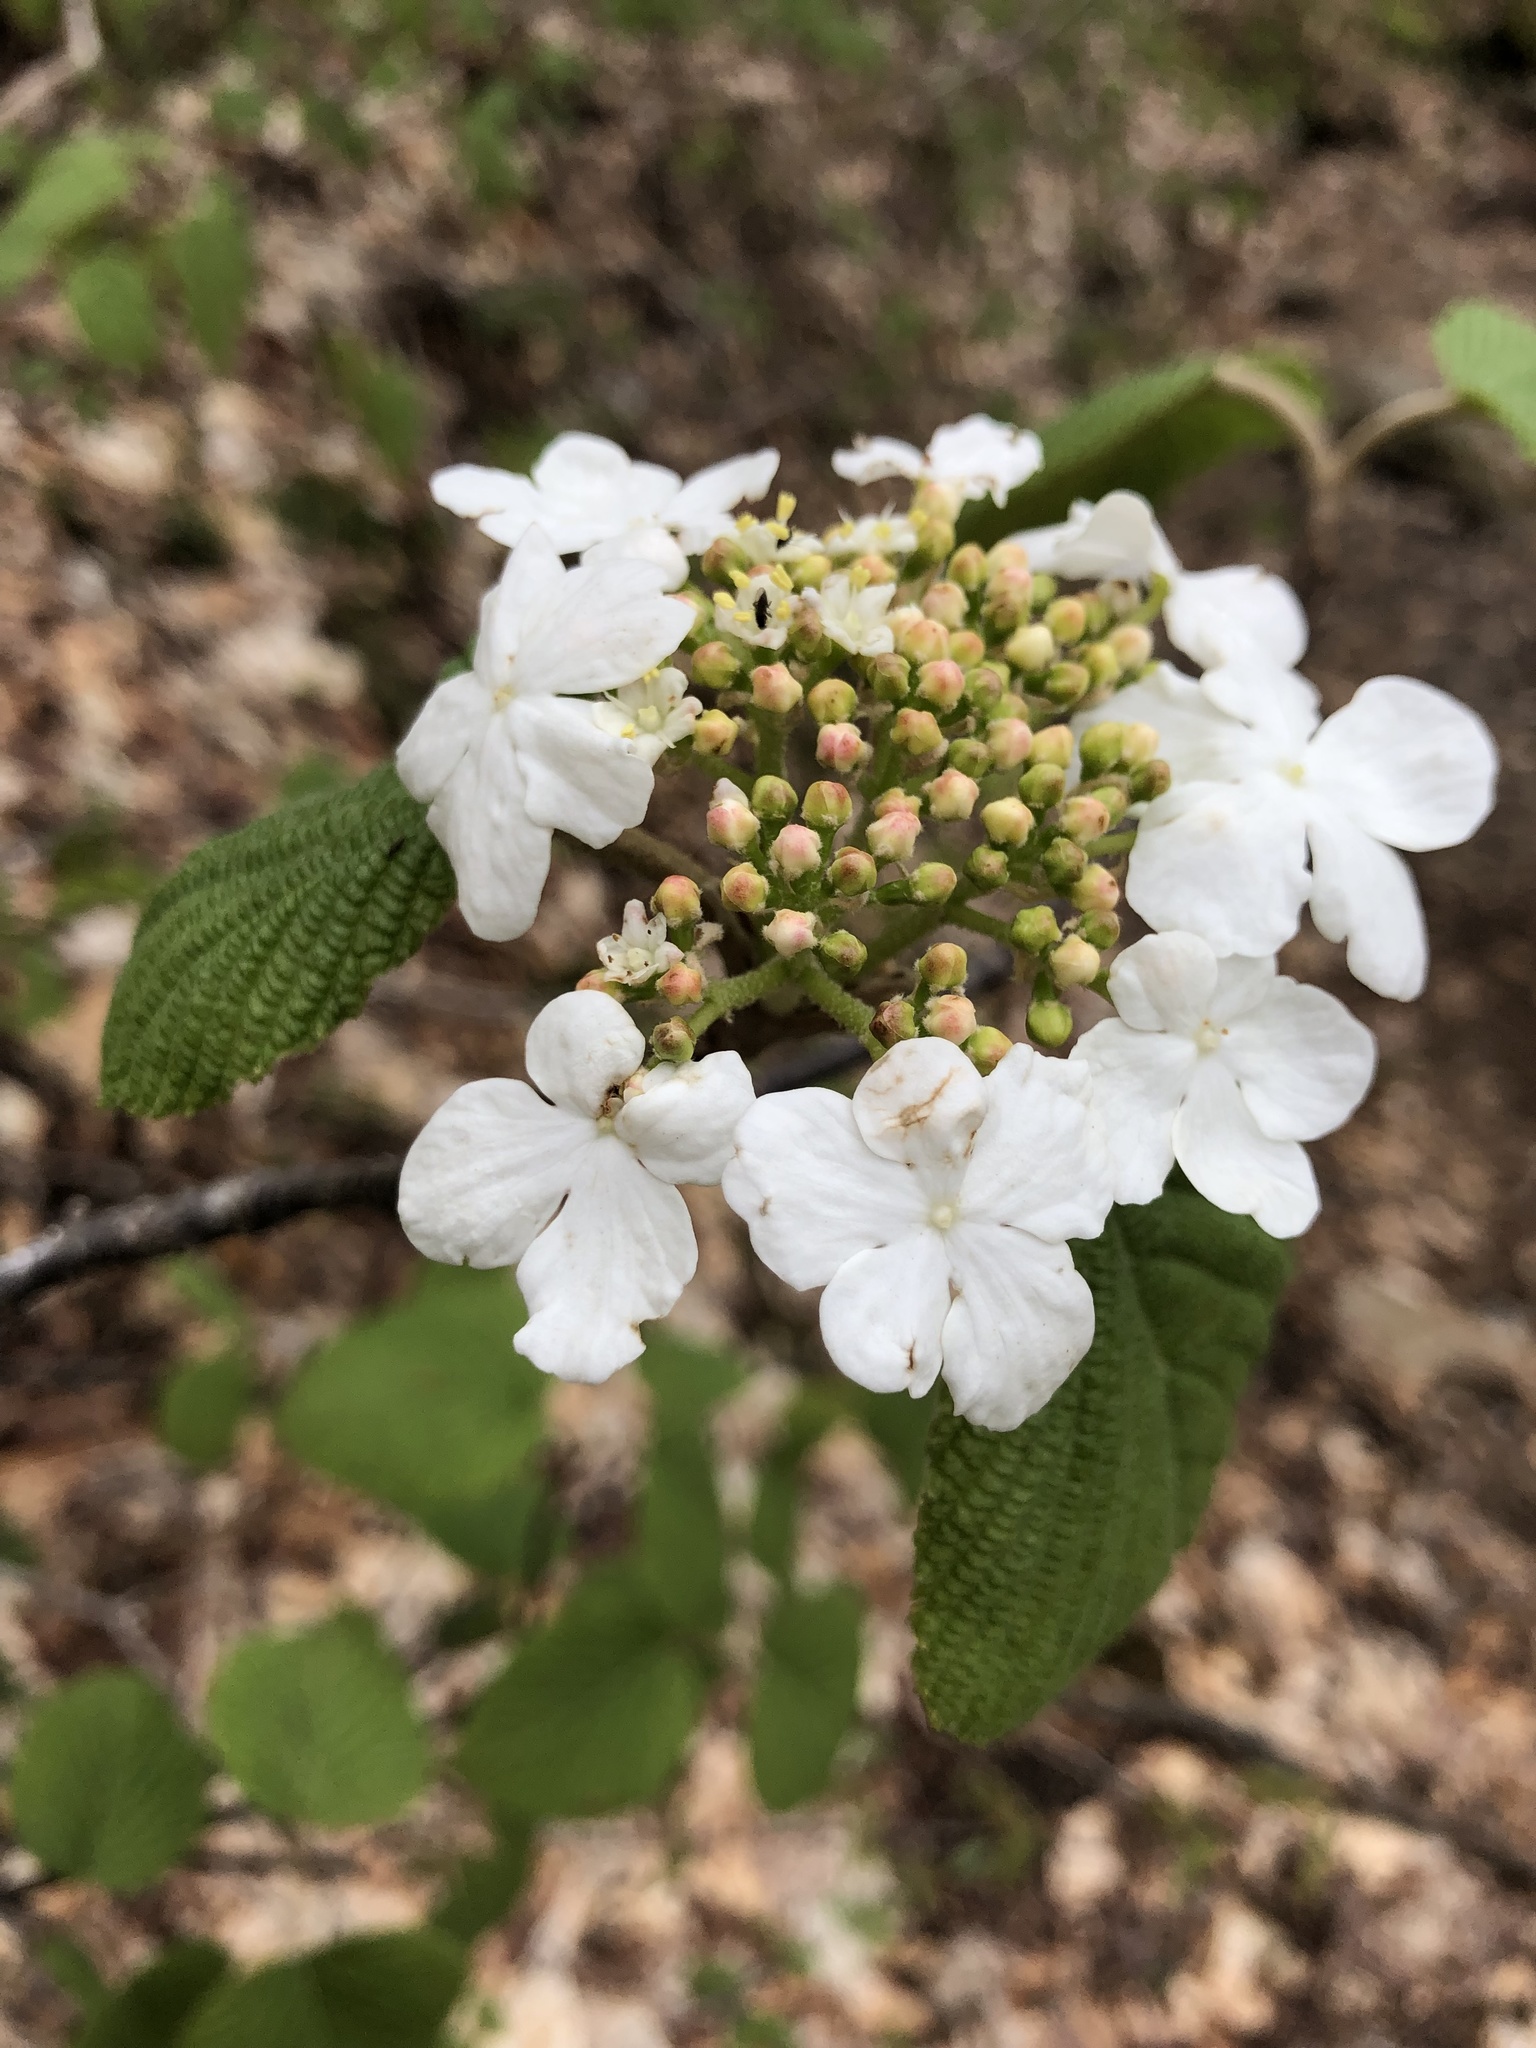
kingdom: Plantae
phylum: Tracheophyta
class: Magnoliopsida
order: Dipsacales
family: Viburnaceae
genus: Viburnum
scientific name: Viburnum lantanoides
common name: Hobblebush
